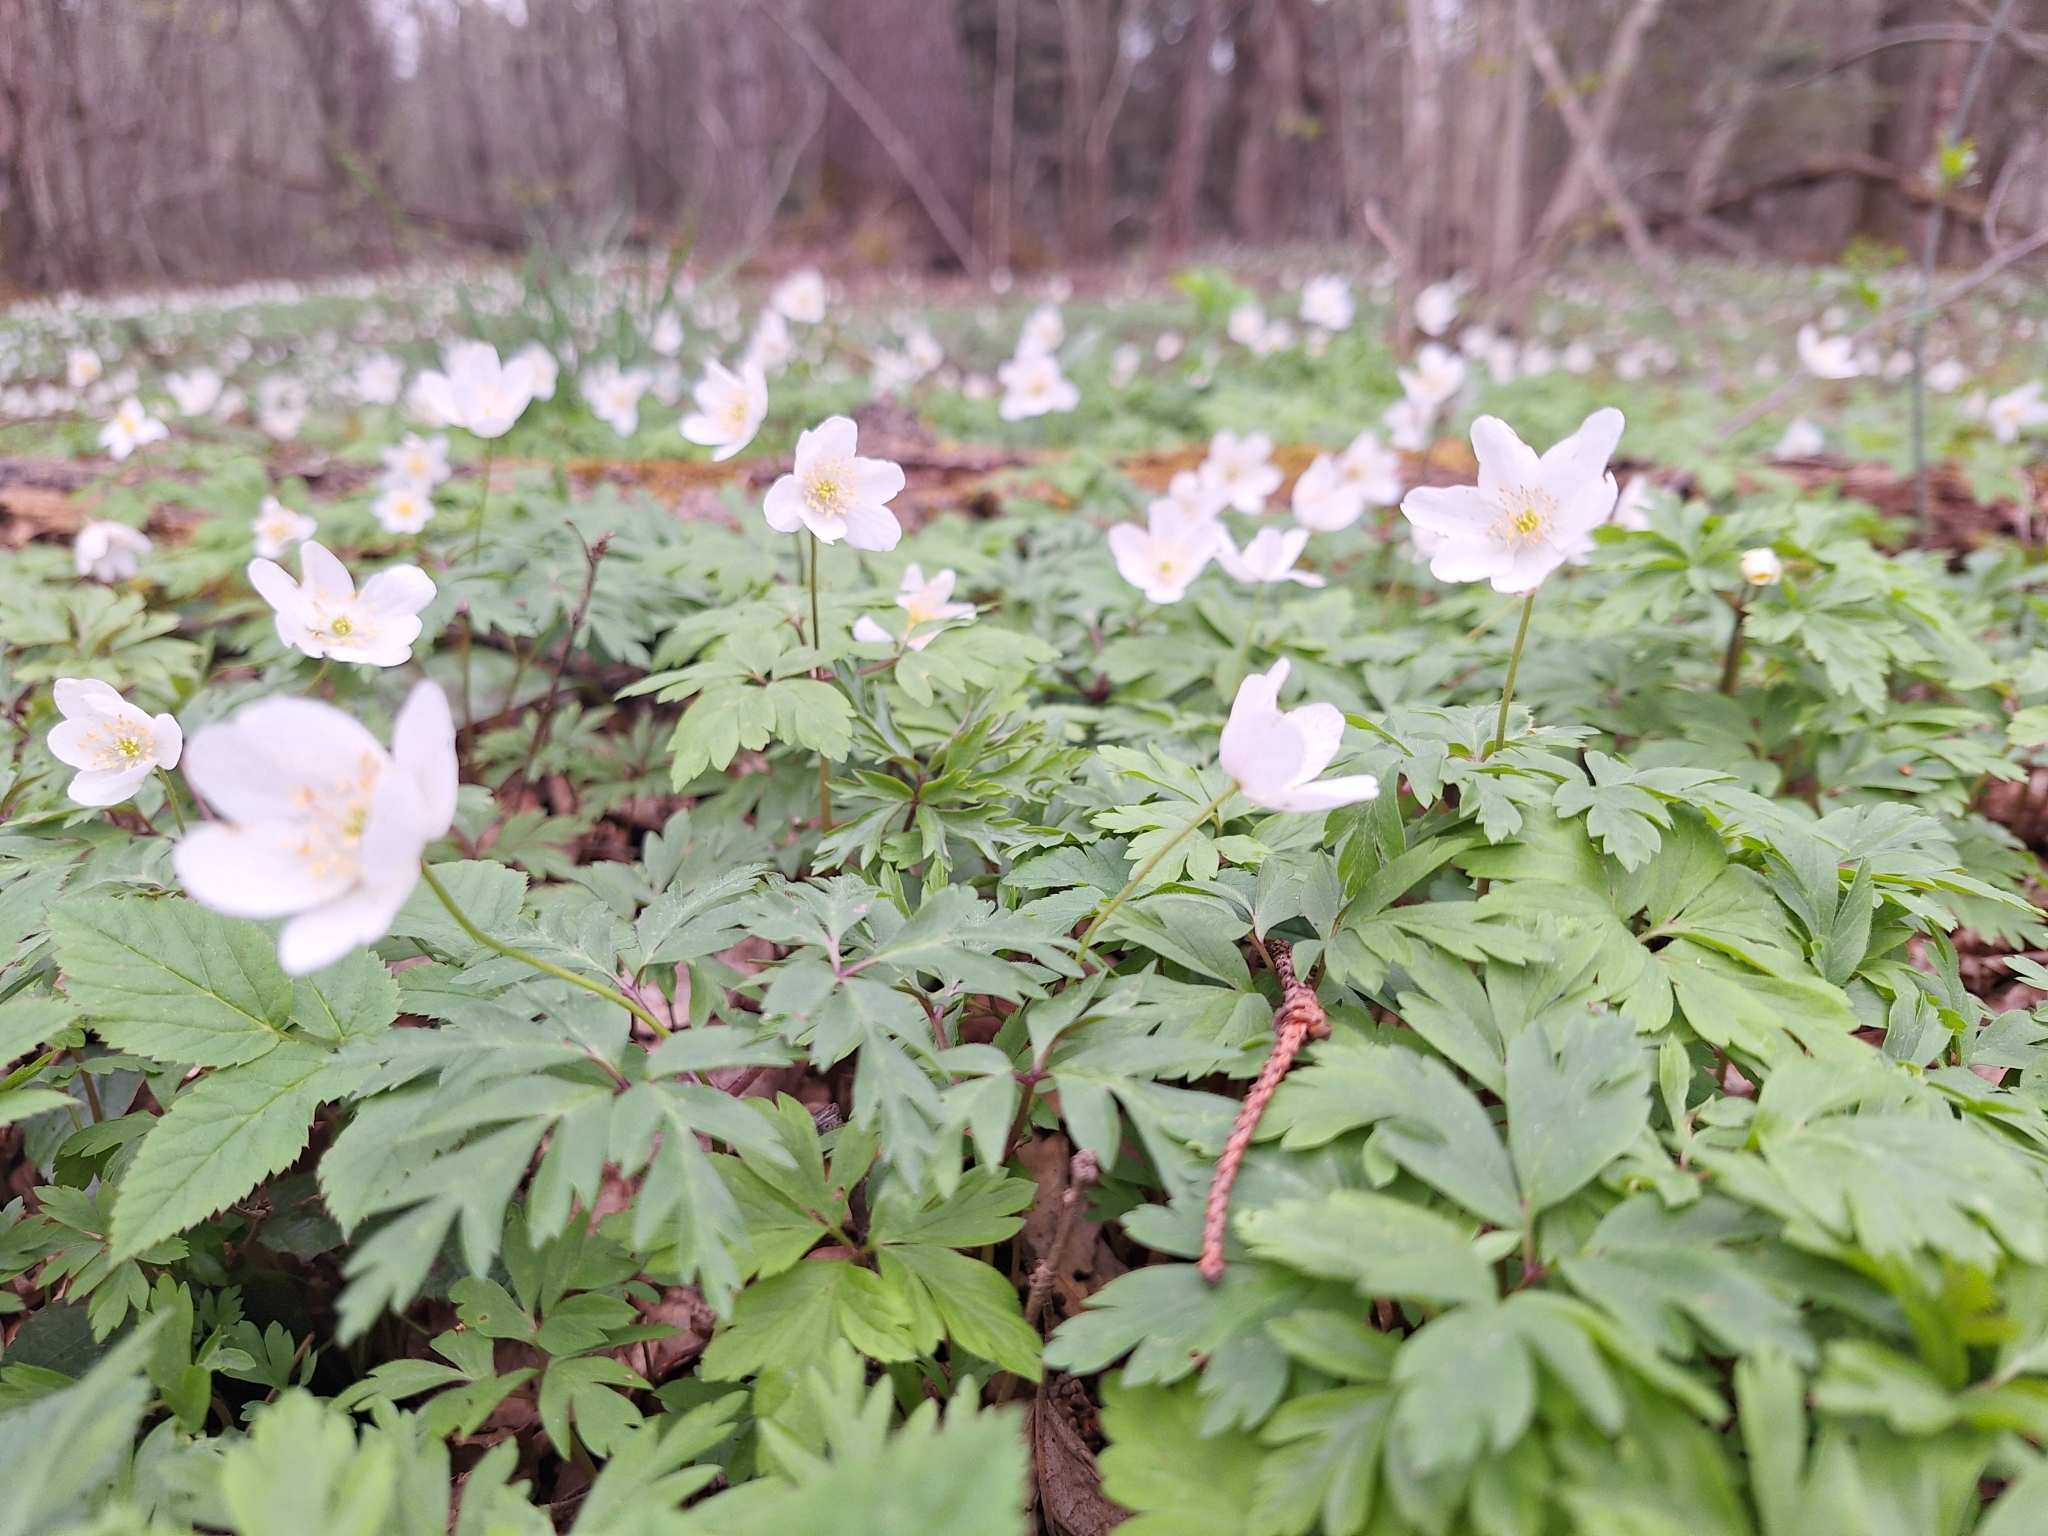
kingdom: Plantae
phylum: Tracheophyta
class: Magnoliopsida
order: Ranunculales
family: Ranunculaceae
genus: Anemone
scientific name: Anemone nemorosa
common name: Wood anemone
